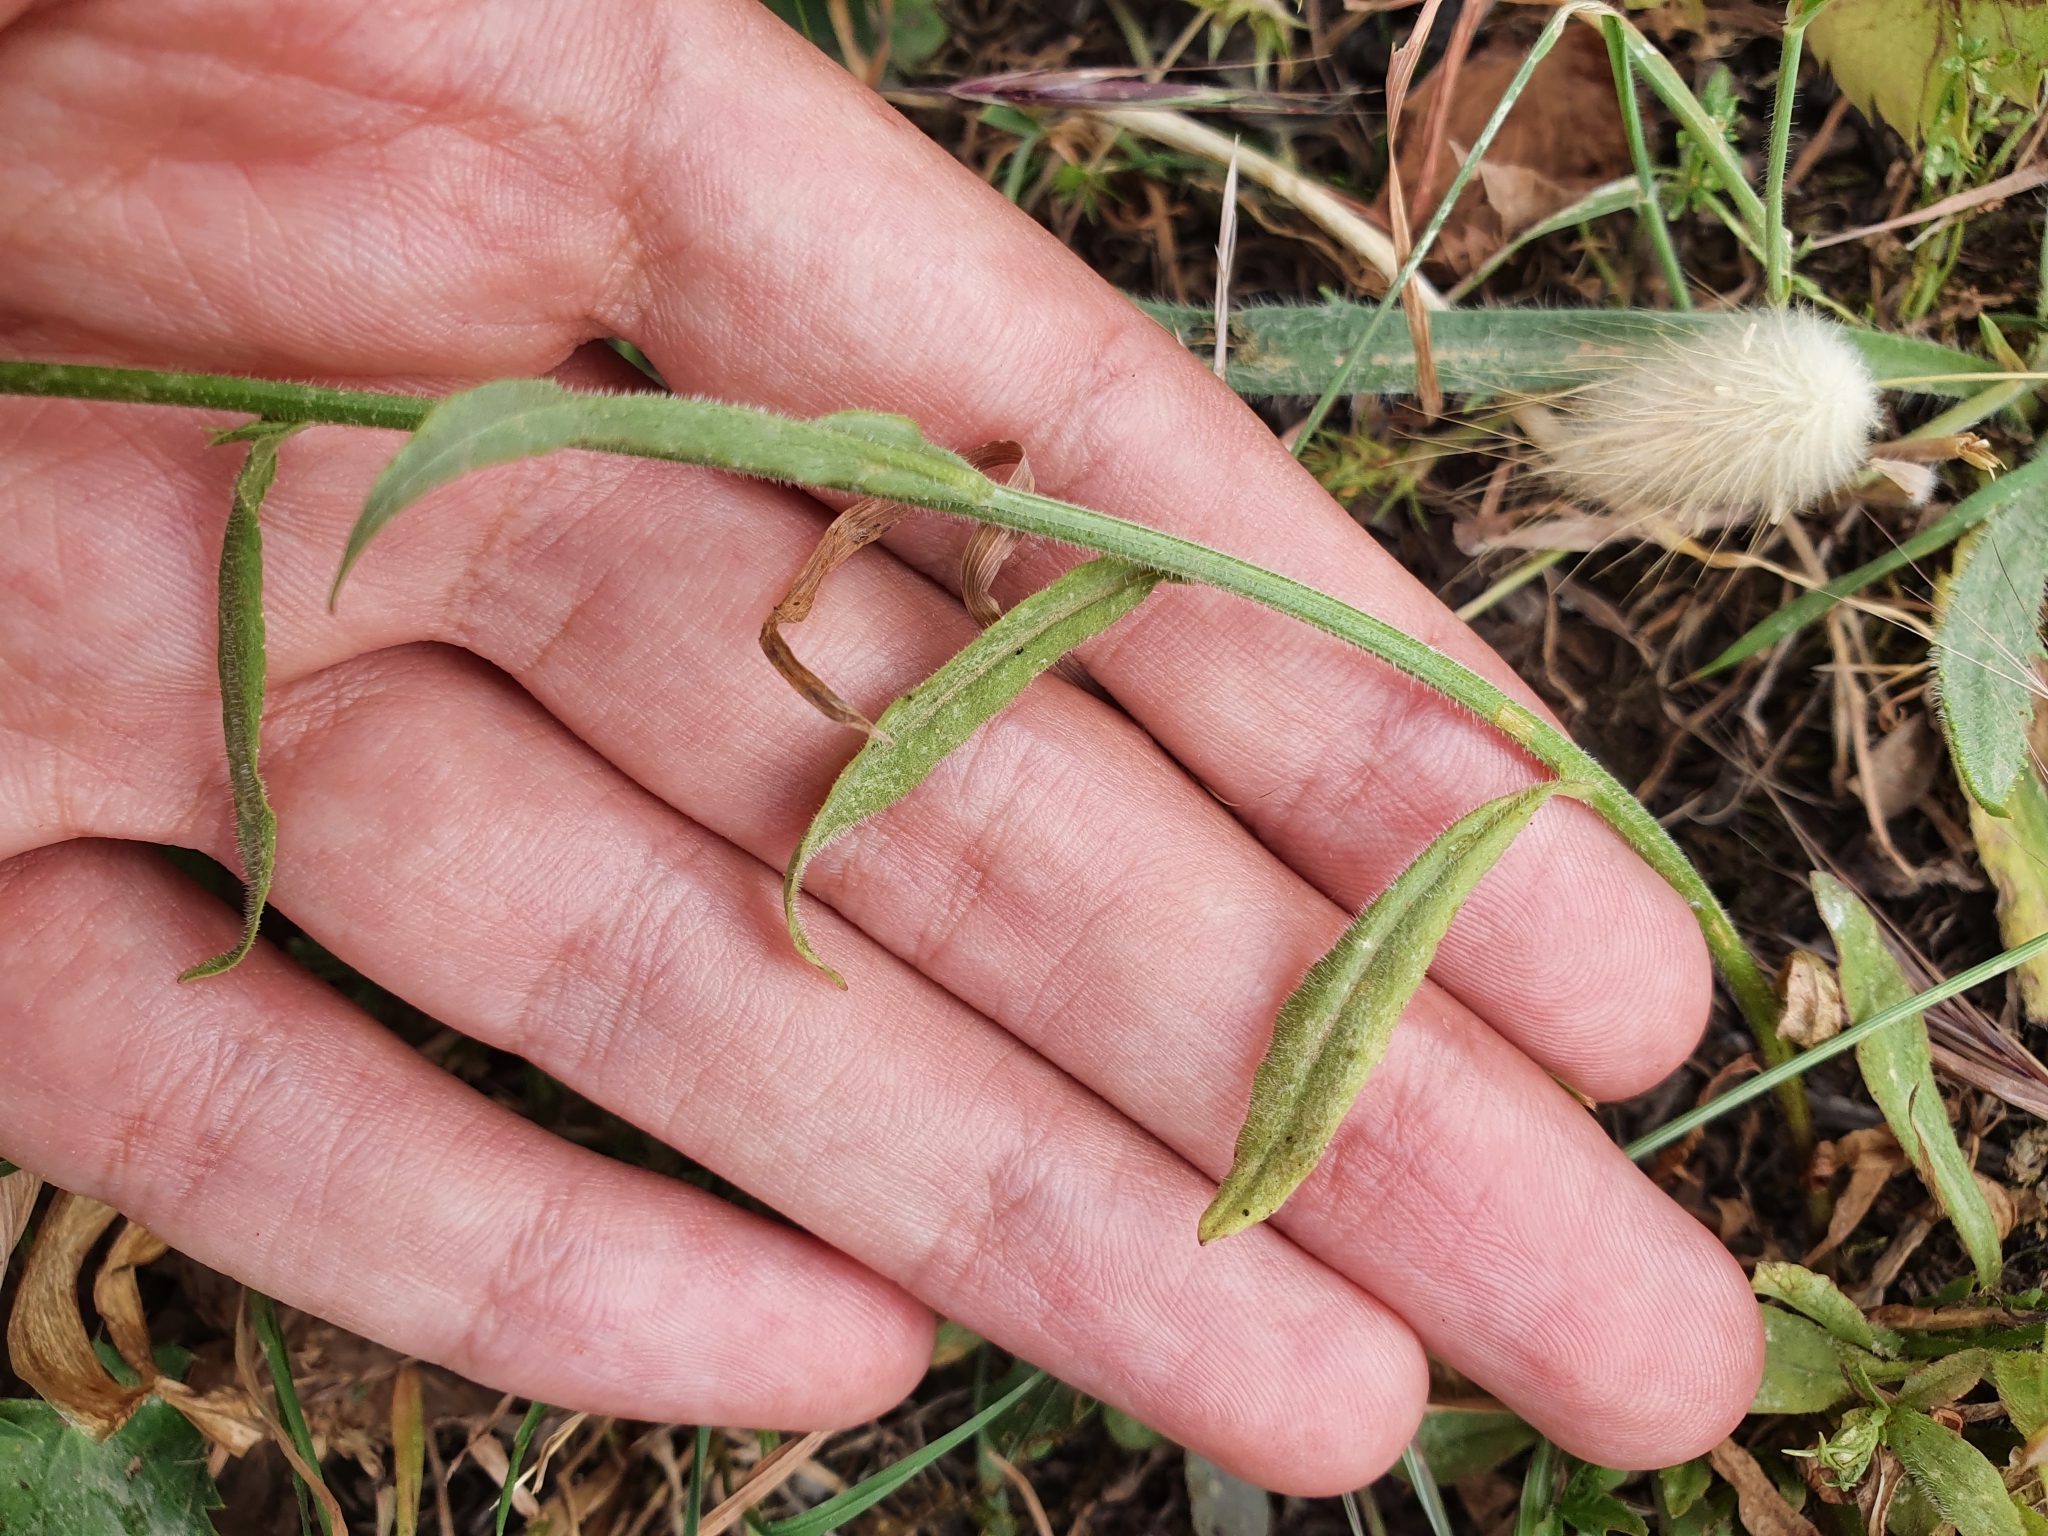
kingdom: Plantae
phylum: Tracheophyta
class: Magnoliopsida
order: Asterales
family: Campanulaceae
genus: Campanula
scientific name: Campanula rapunculus
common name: Rampion bellflower
